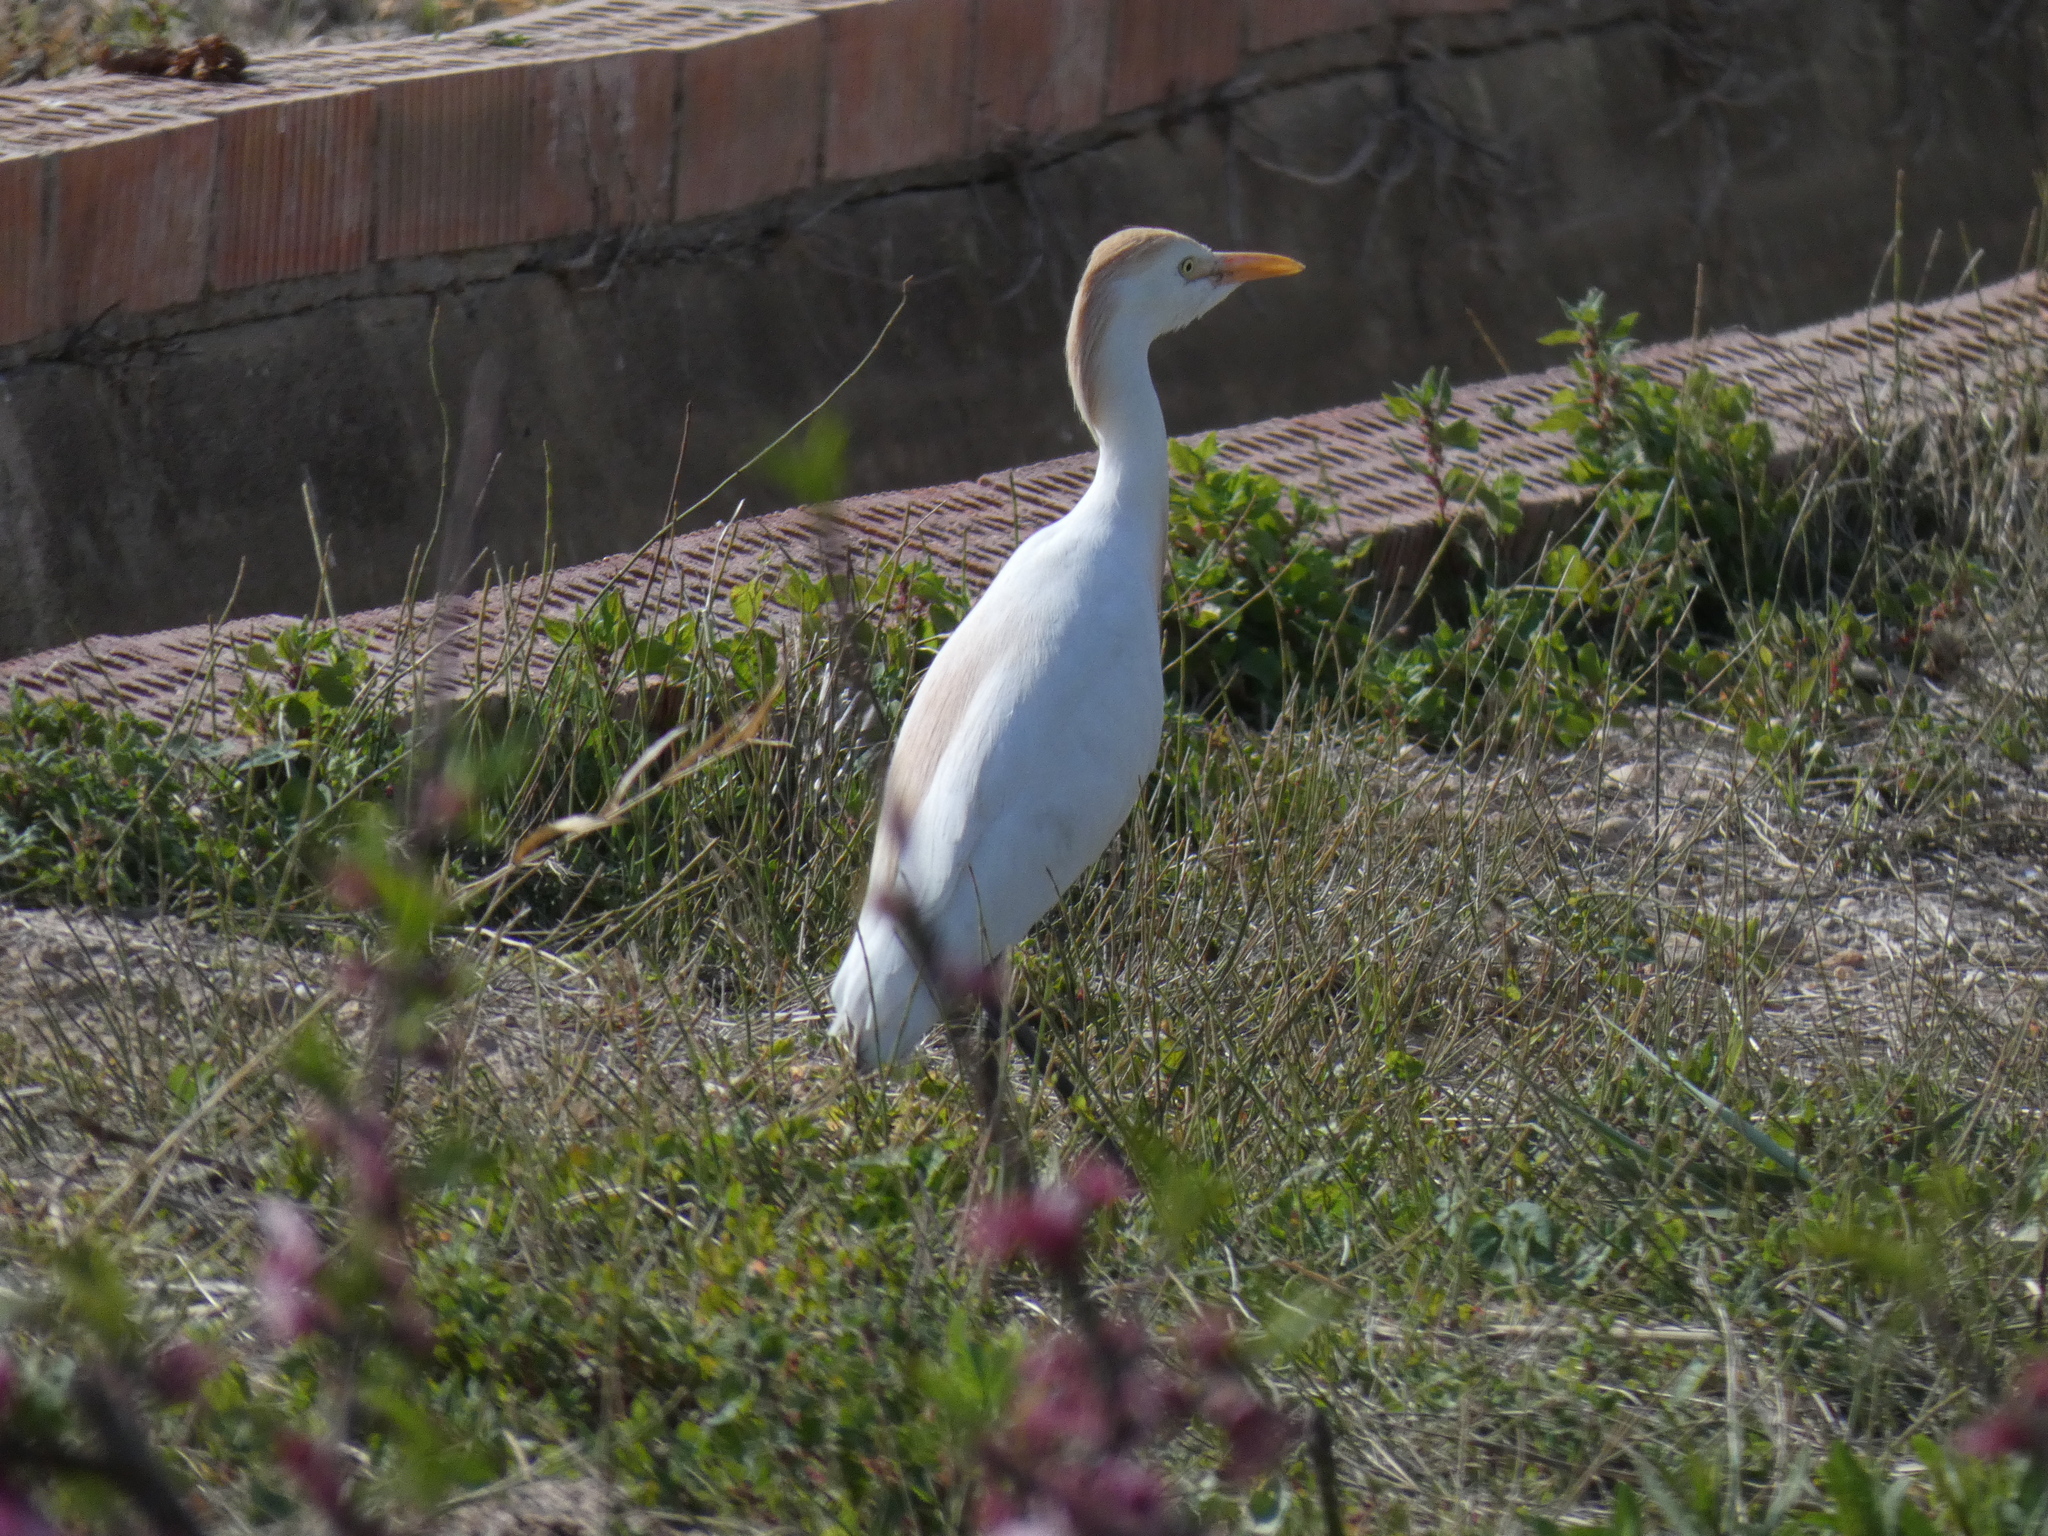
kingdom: Animalia
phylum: Chordata
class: Aves
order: Pelecaniformes
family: Ardeidae
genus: Bubulcus
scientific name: Bubulcus ibis
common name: Cattle egret
